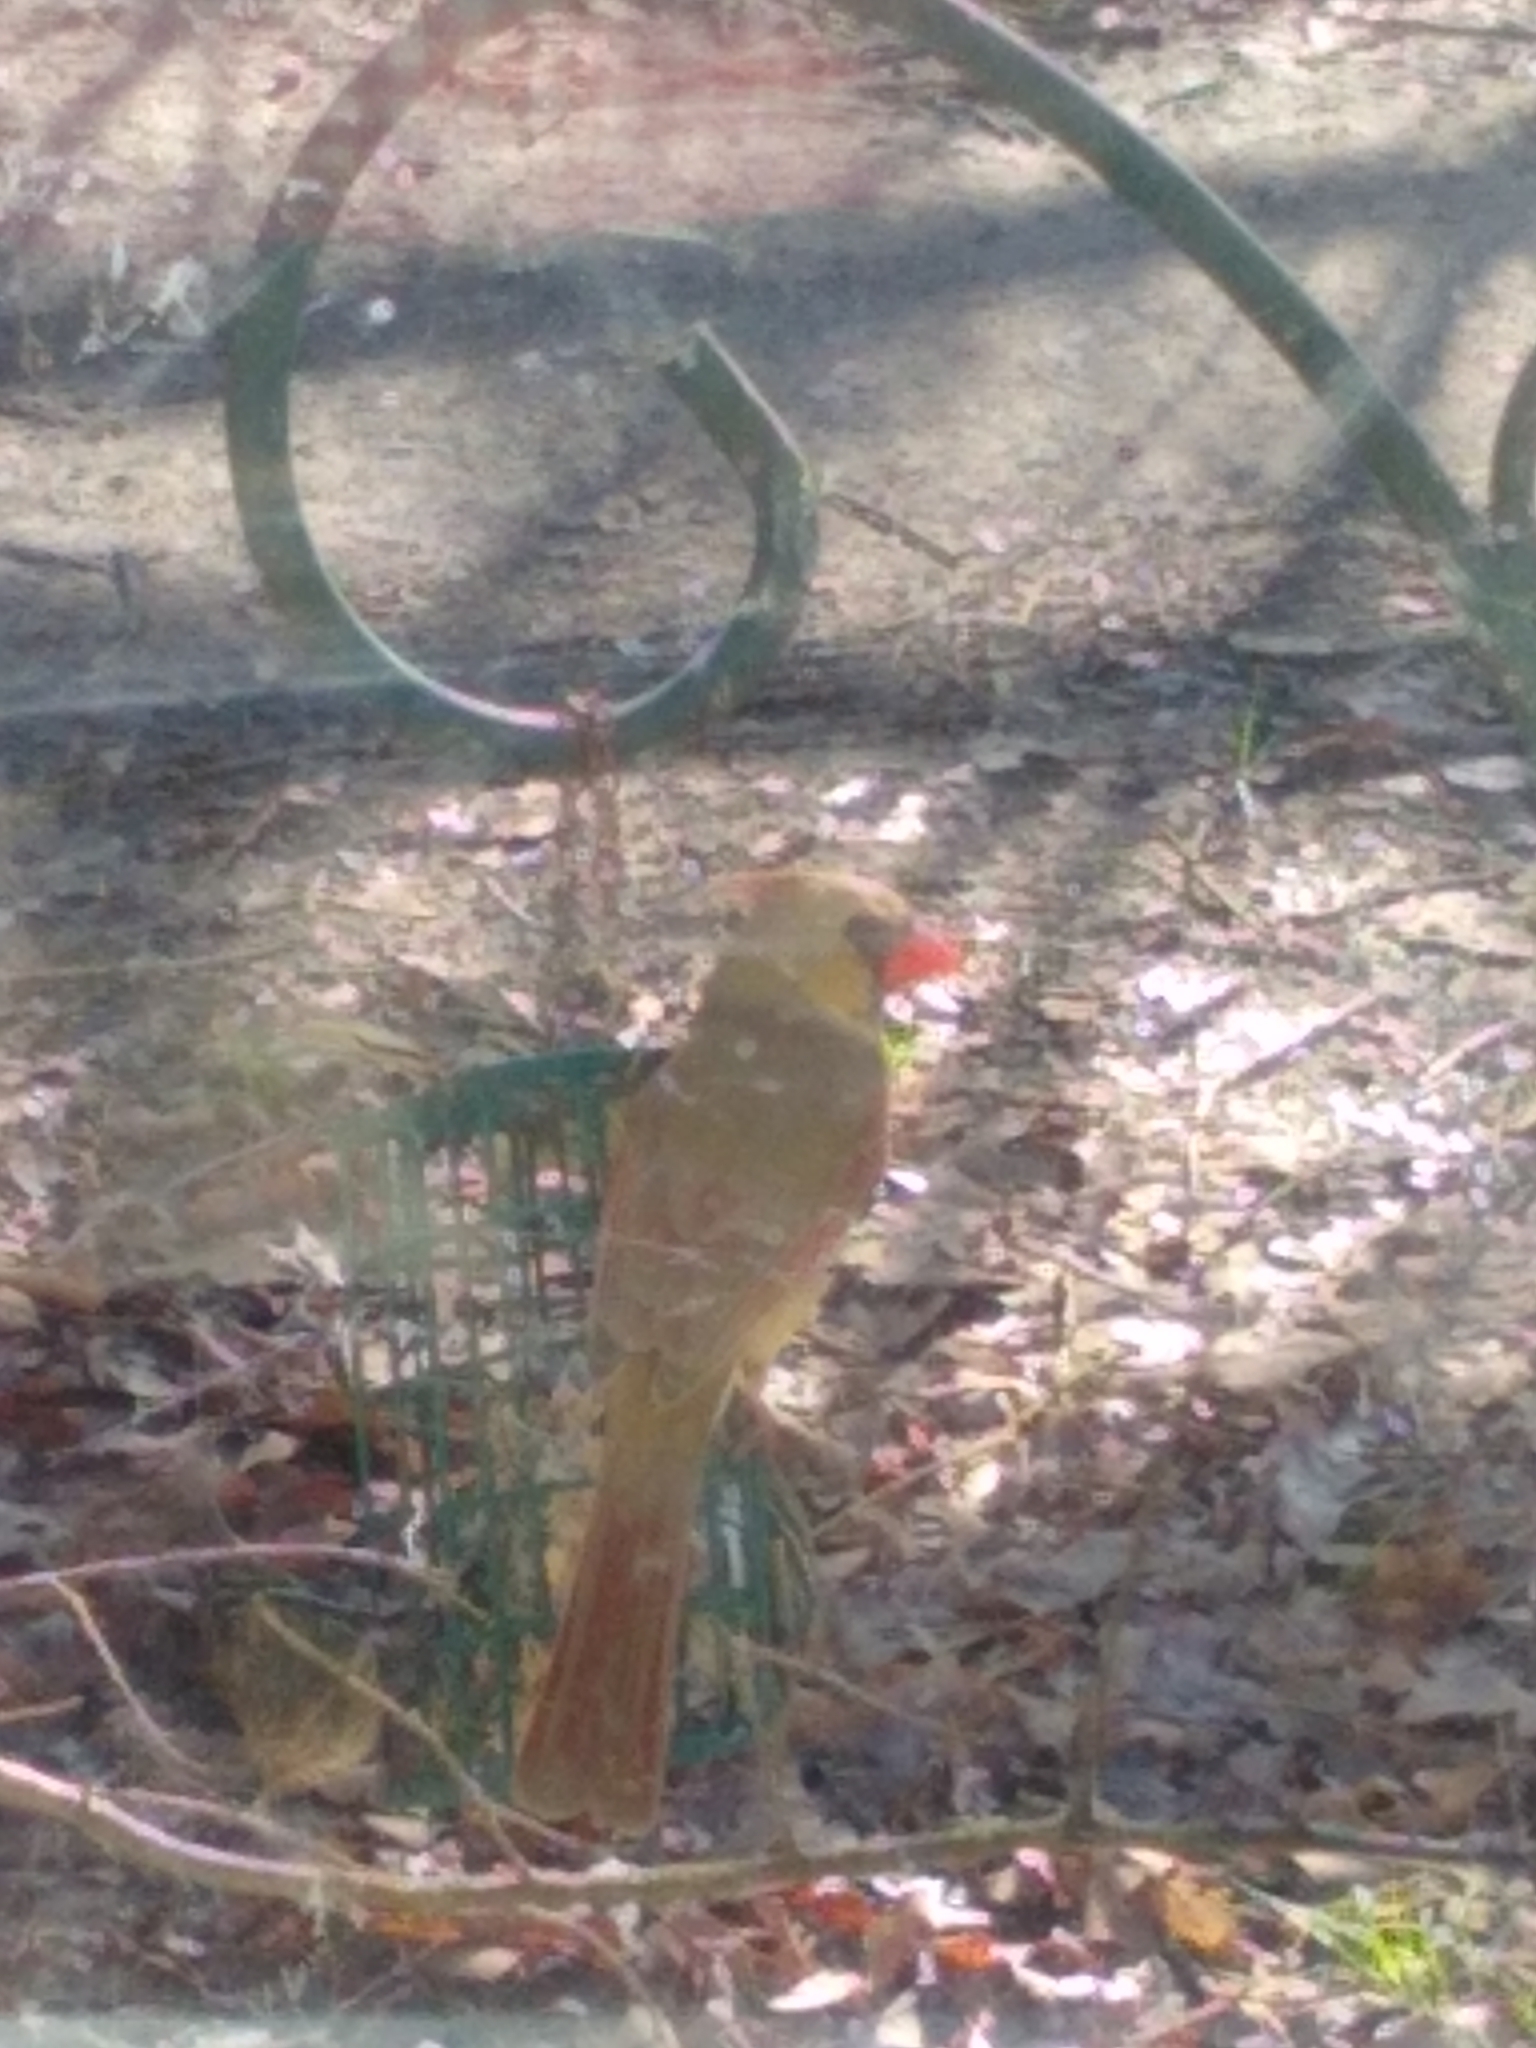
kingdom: Animalia
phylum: Chordata
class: Aves
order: Passeriformes
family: Cardinalidae
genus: Cardinalis
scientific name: Cardinalis cardinalis
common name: Northern cardinal
